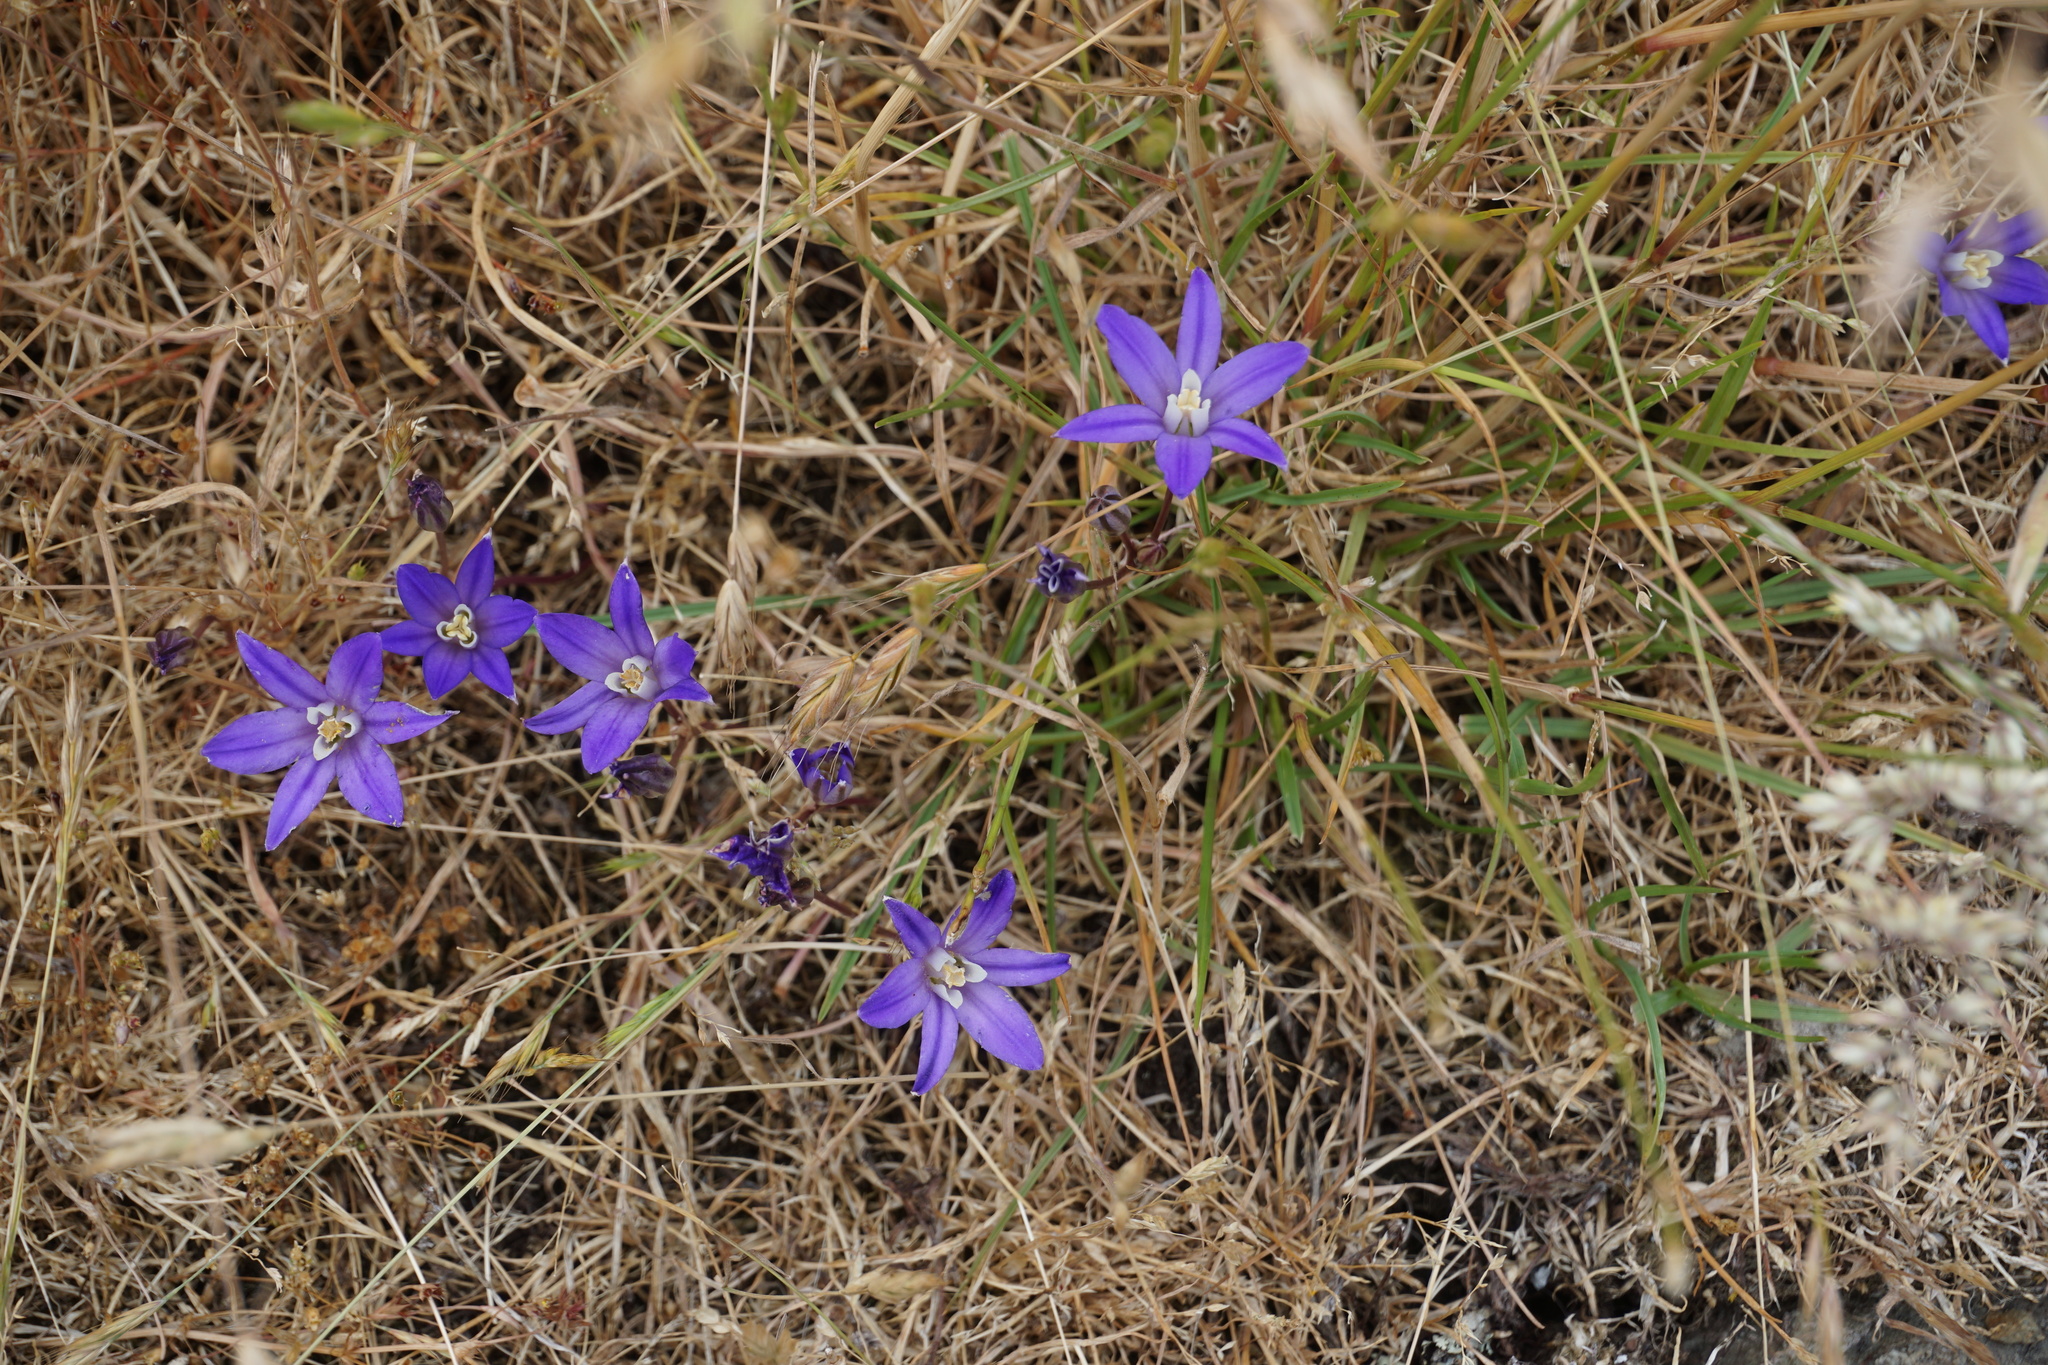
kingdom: Plantae
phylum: Tracheophyta
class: Liliopsida
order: Asparagales
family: Asparagaceae
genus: Brodiaea
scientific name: Brodiaea coronaria
